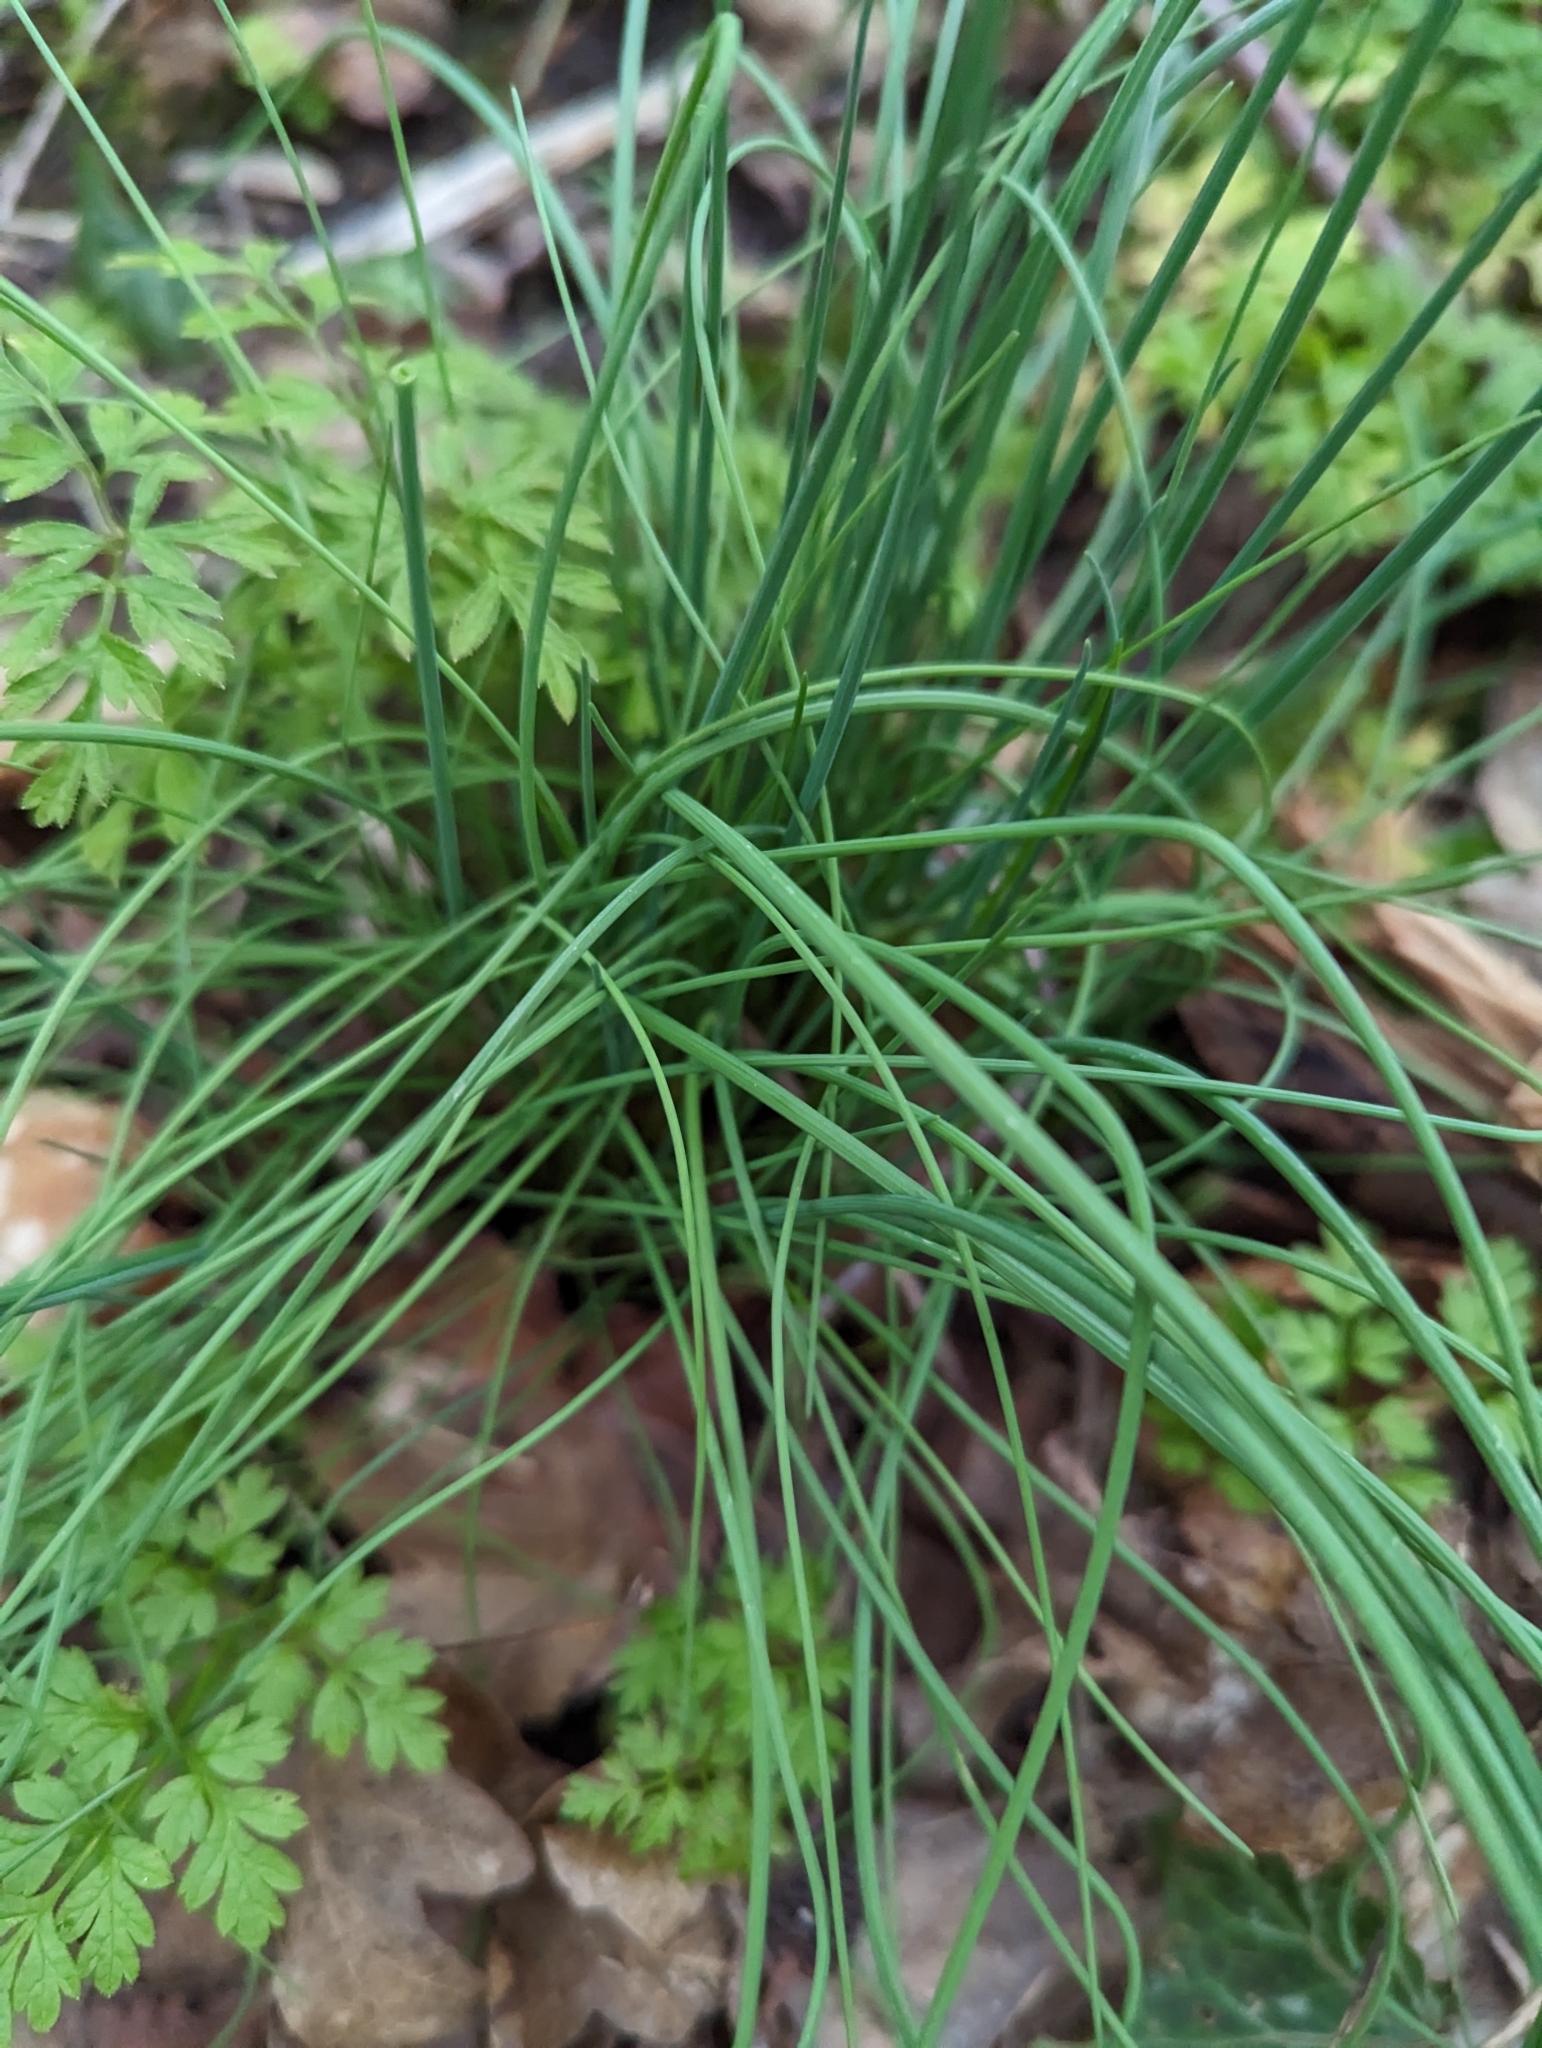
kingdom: Plantae
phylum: Tracheophyta
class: Liliopsida
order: Asparagales
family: Amaryllidaceae
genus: Allium
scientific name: Allium vineale
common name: Crow garlic
